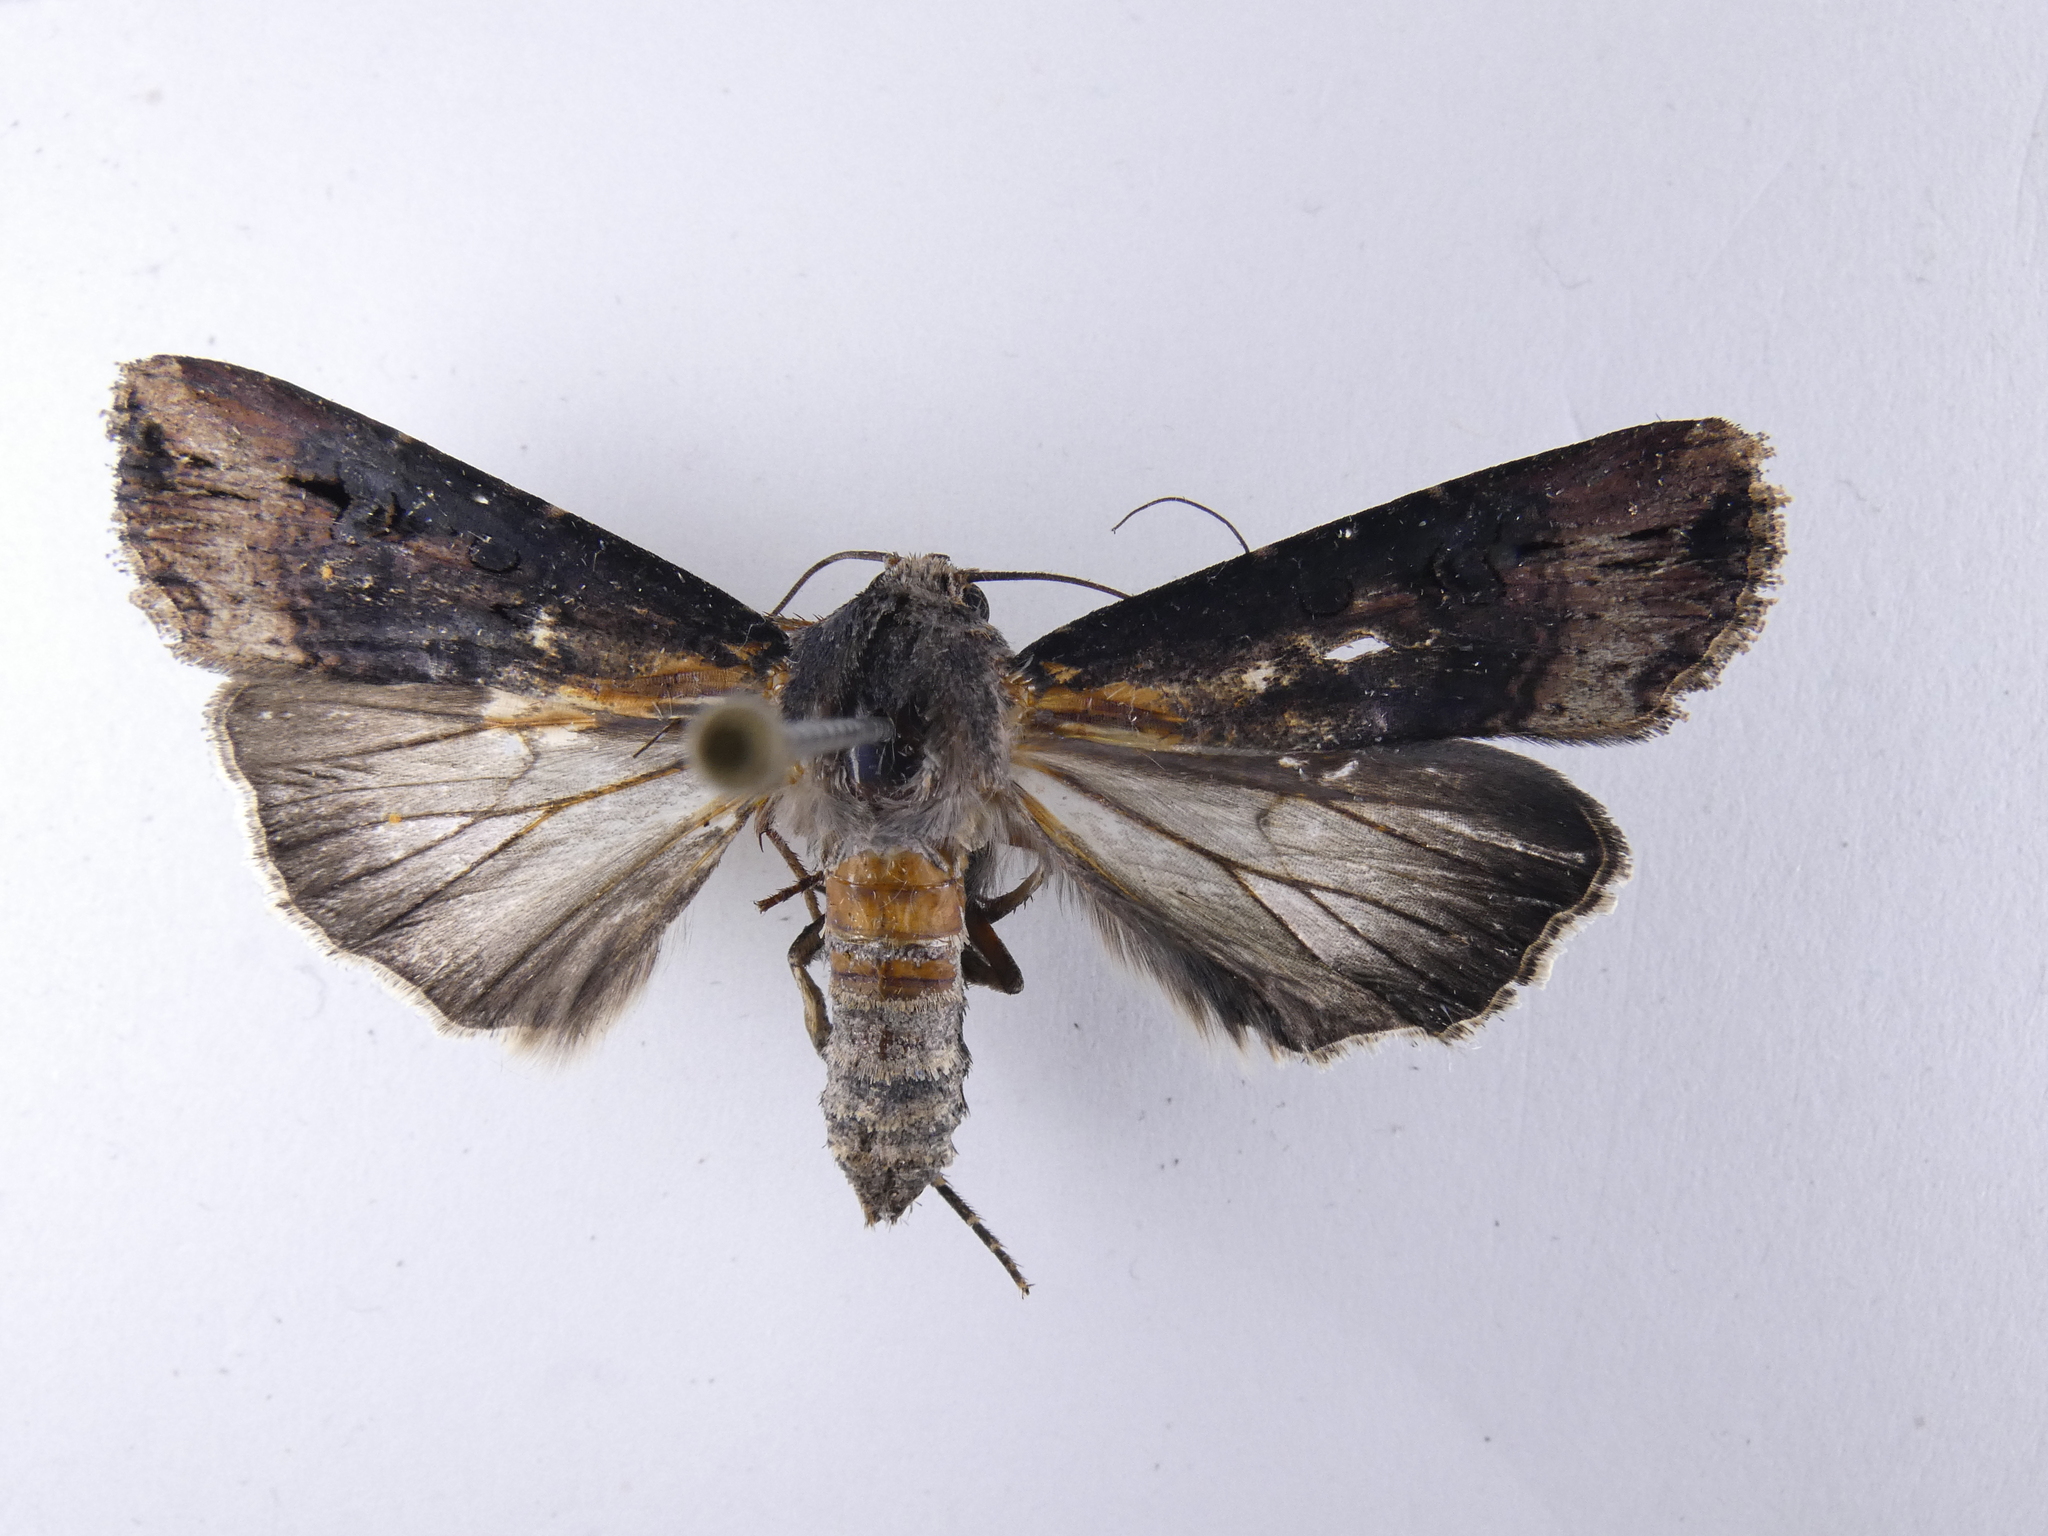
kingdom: Animalia
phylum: Arthropoda
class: Insecta
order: Lepidoptera
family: Noctuidae
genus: Agrotis
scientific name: Agrotis ipsilon
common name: Dark sword-grass
